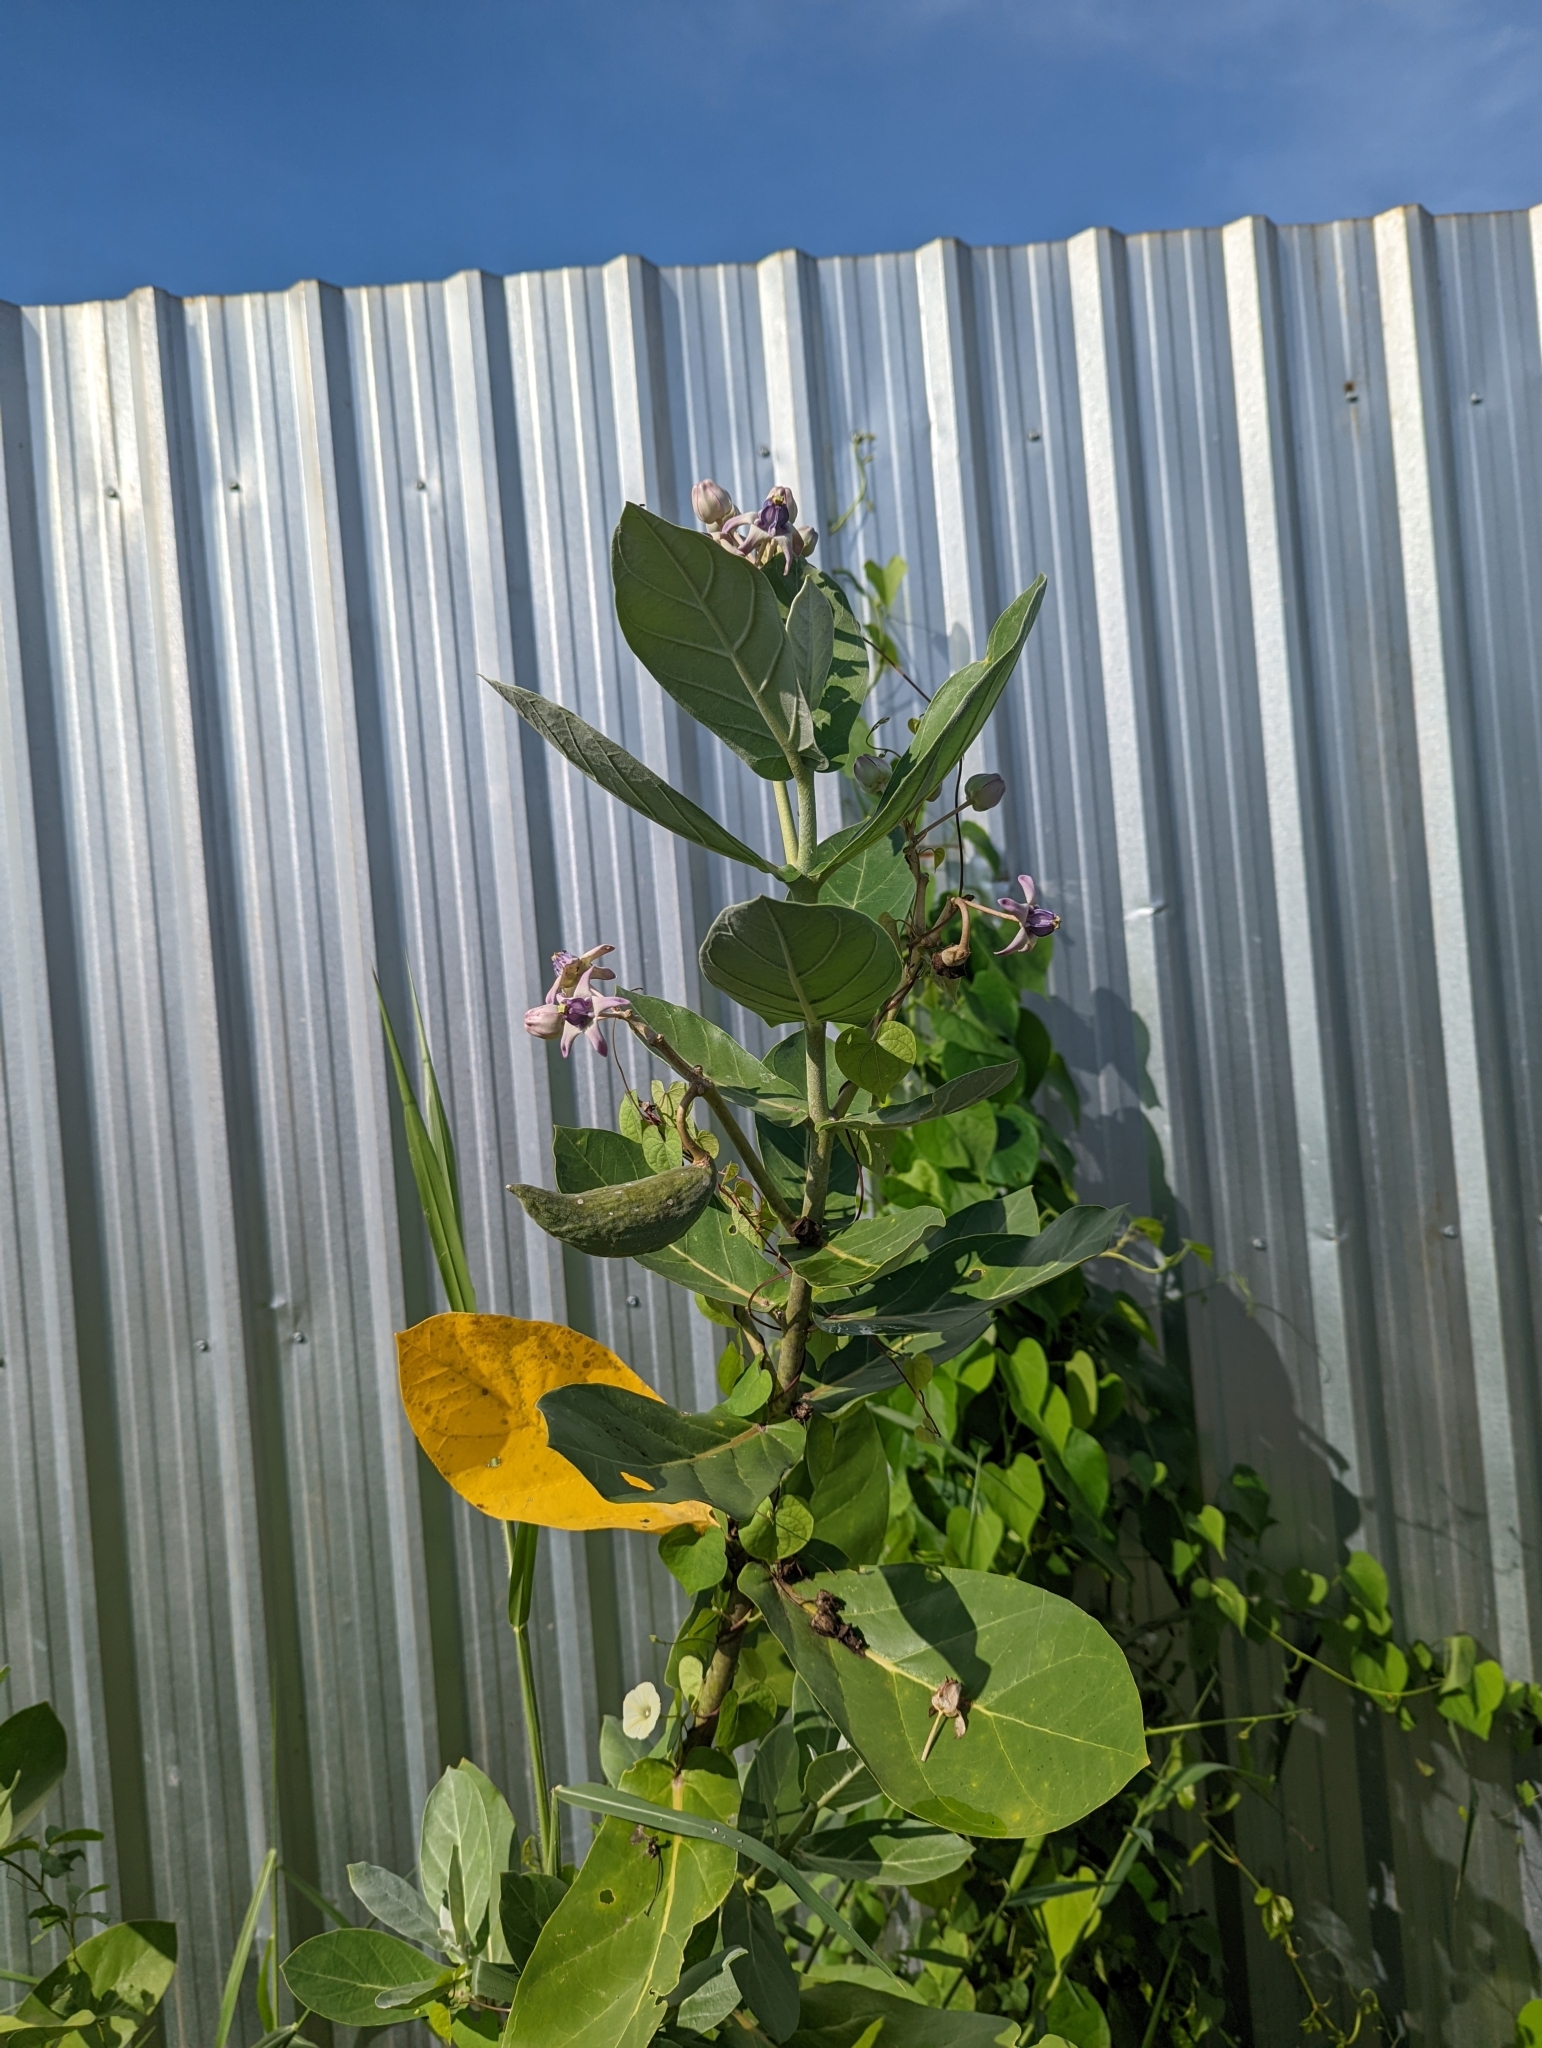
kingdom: Plantae
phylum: Tracheophyta
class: Magnoliopsida
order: Gentianales
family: Apocynaceae
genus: Calotropis
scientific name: Calotropis gigantea
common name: Crown flower
